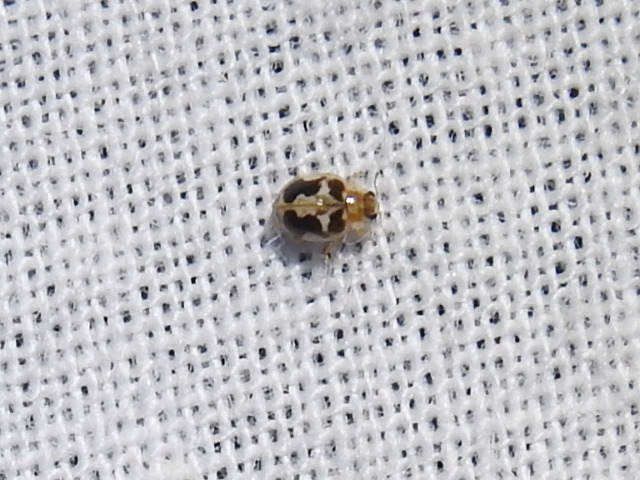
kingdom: Animalia
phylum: Arthropoda
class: Insecta
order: Coleoptera
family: Coccinellidae
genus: Psyllobora
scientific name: Psyllobora renifer
